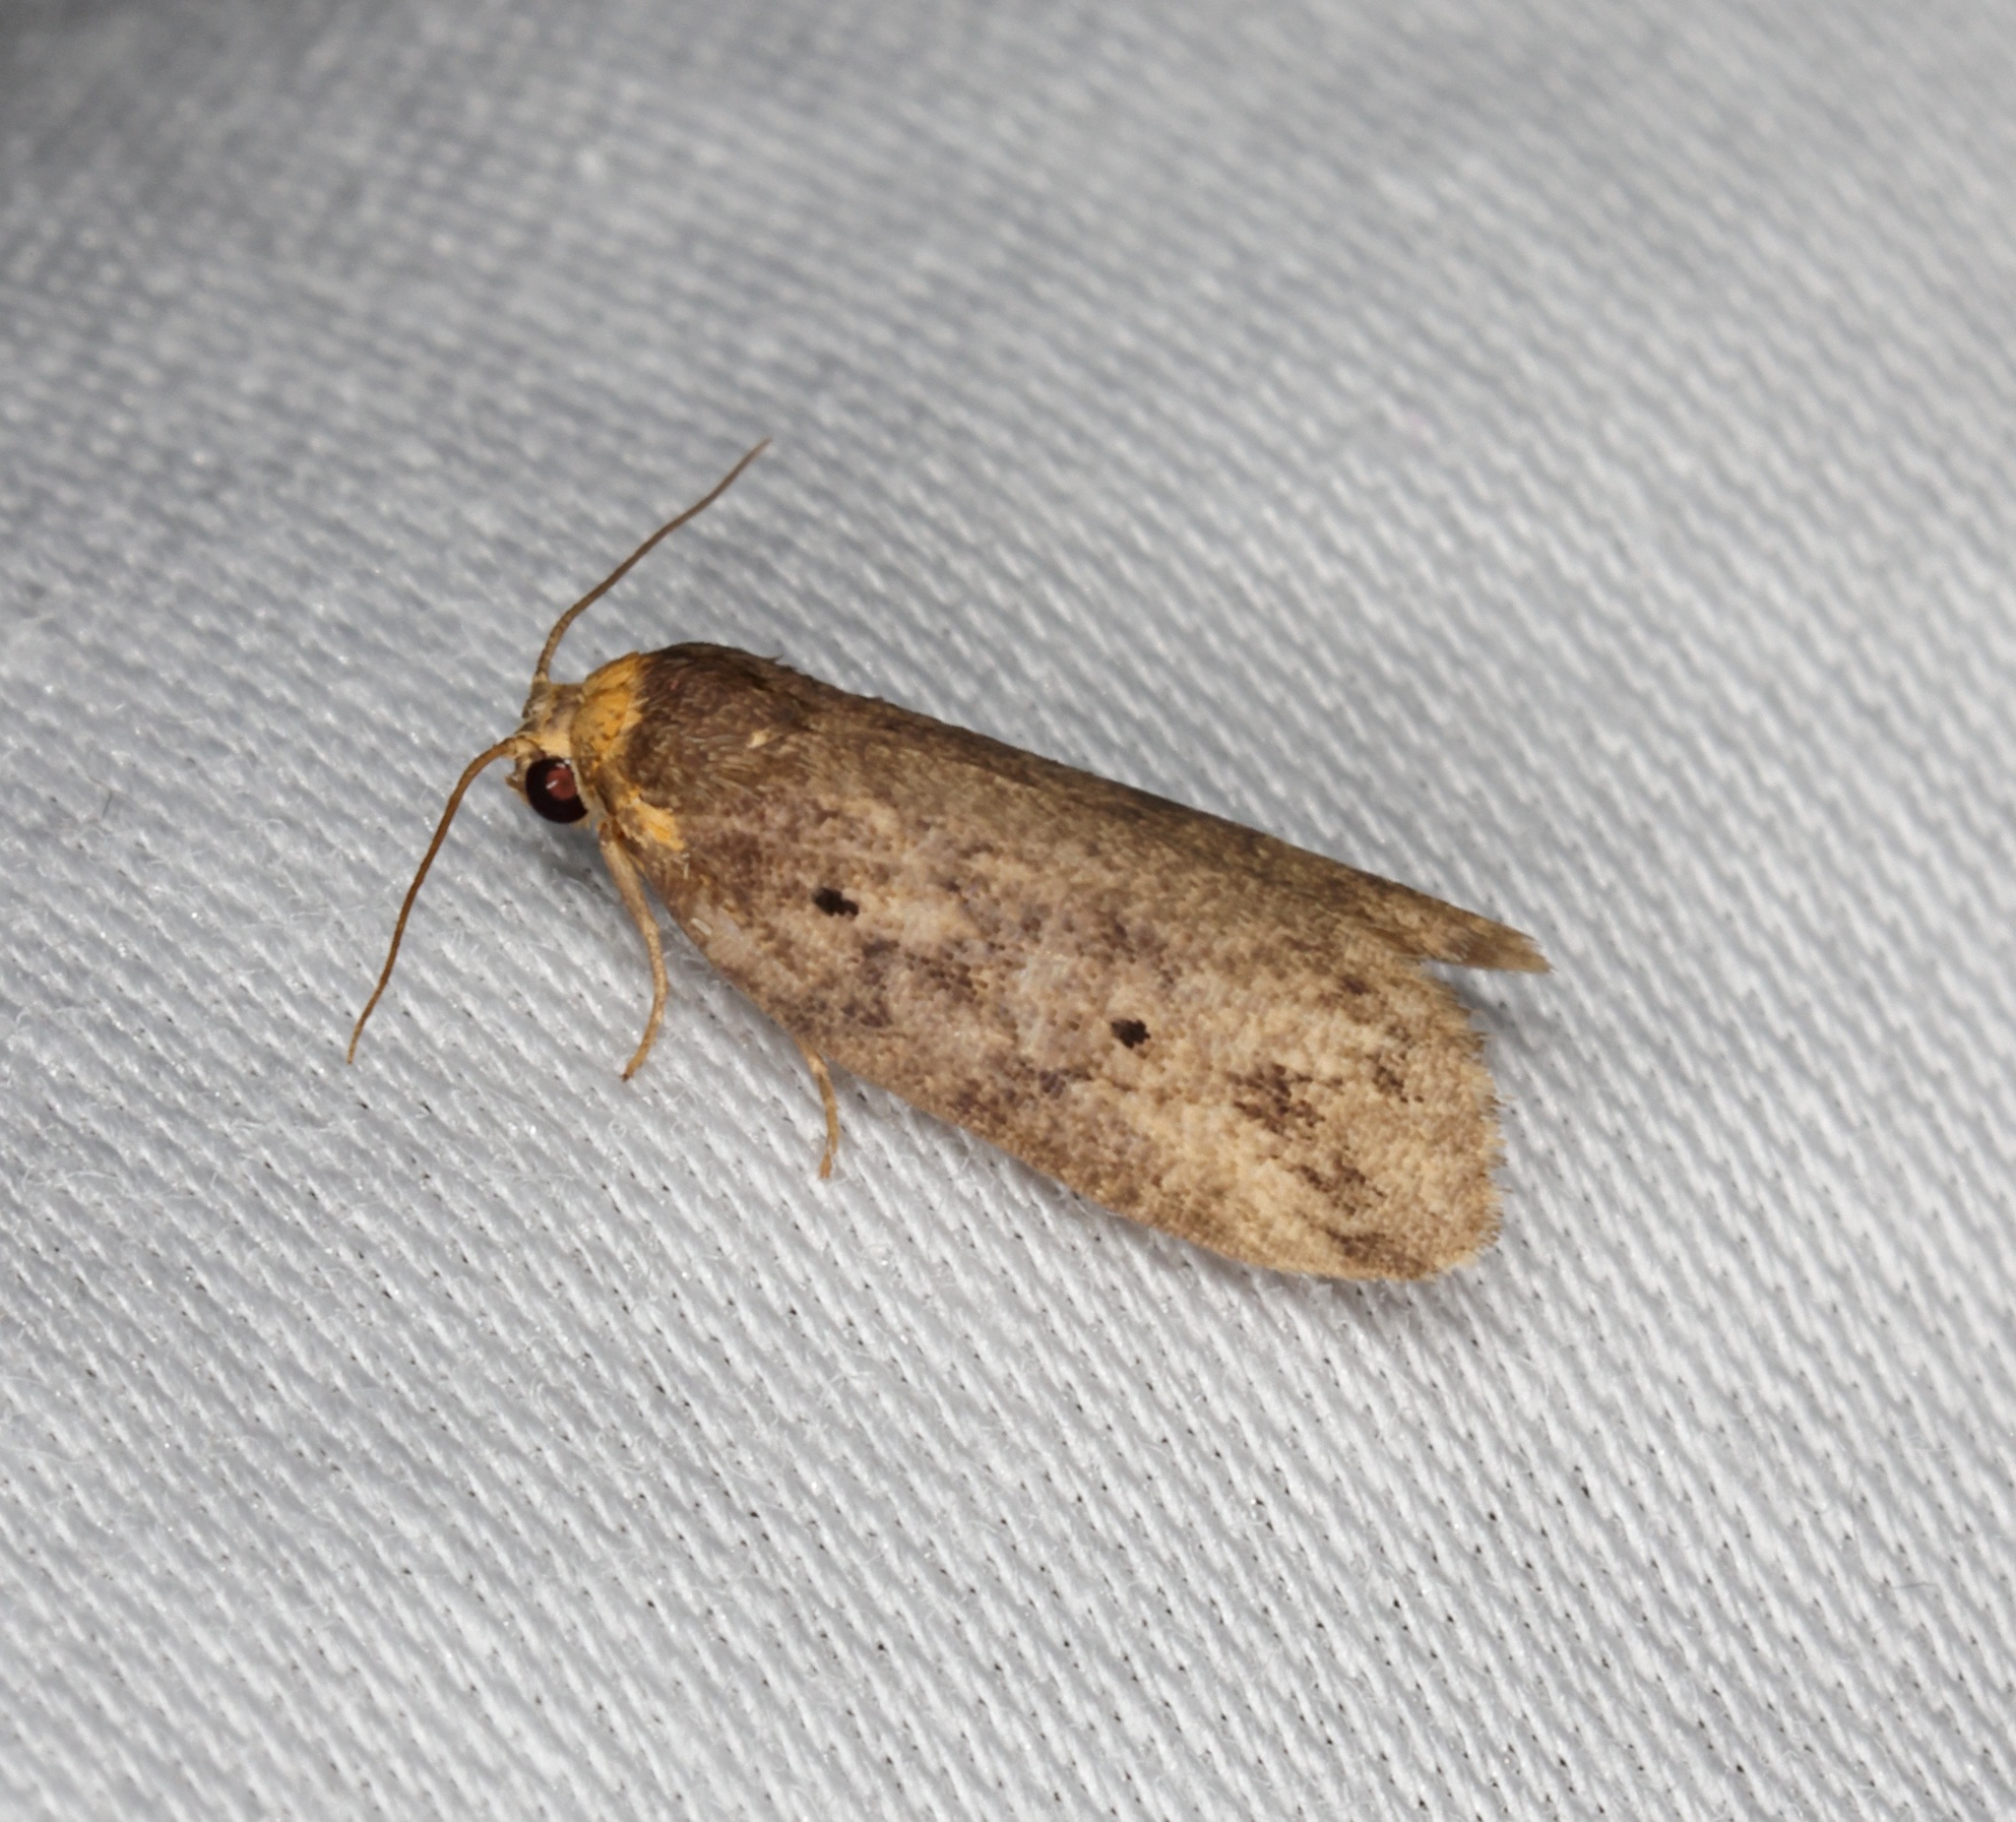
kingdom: Animalia
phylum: Arthropoda
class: Insecta
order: Lepidoptera
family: Erebidae
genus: Eugoa
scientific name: Eugoa brunnea
